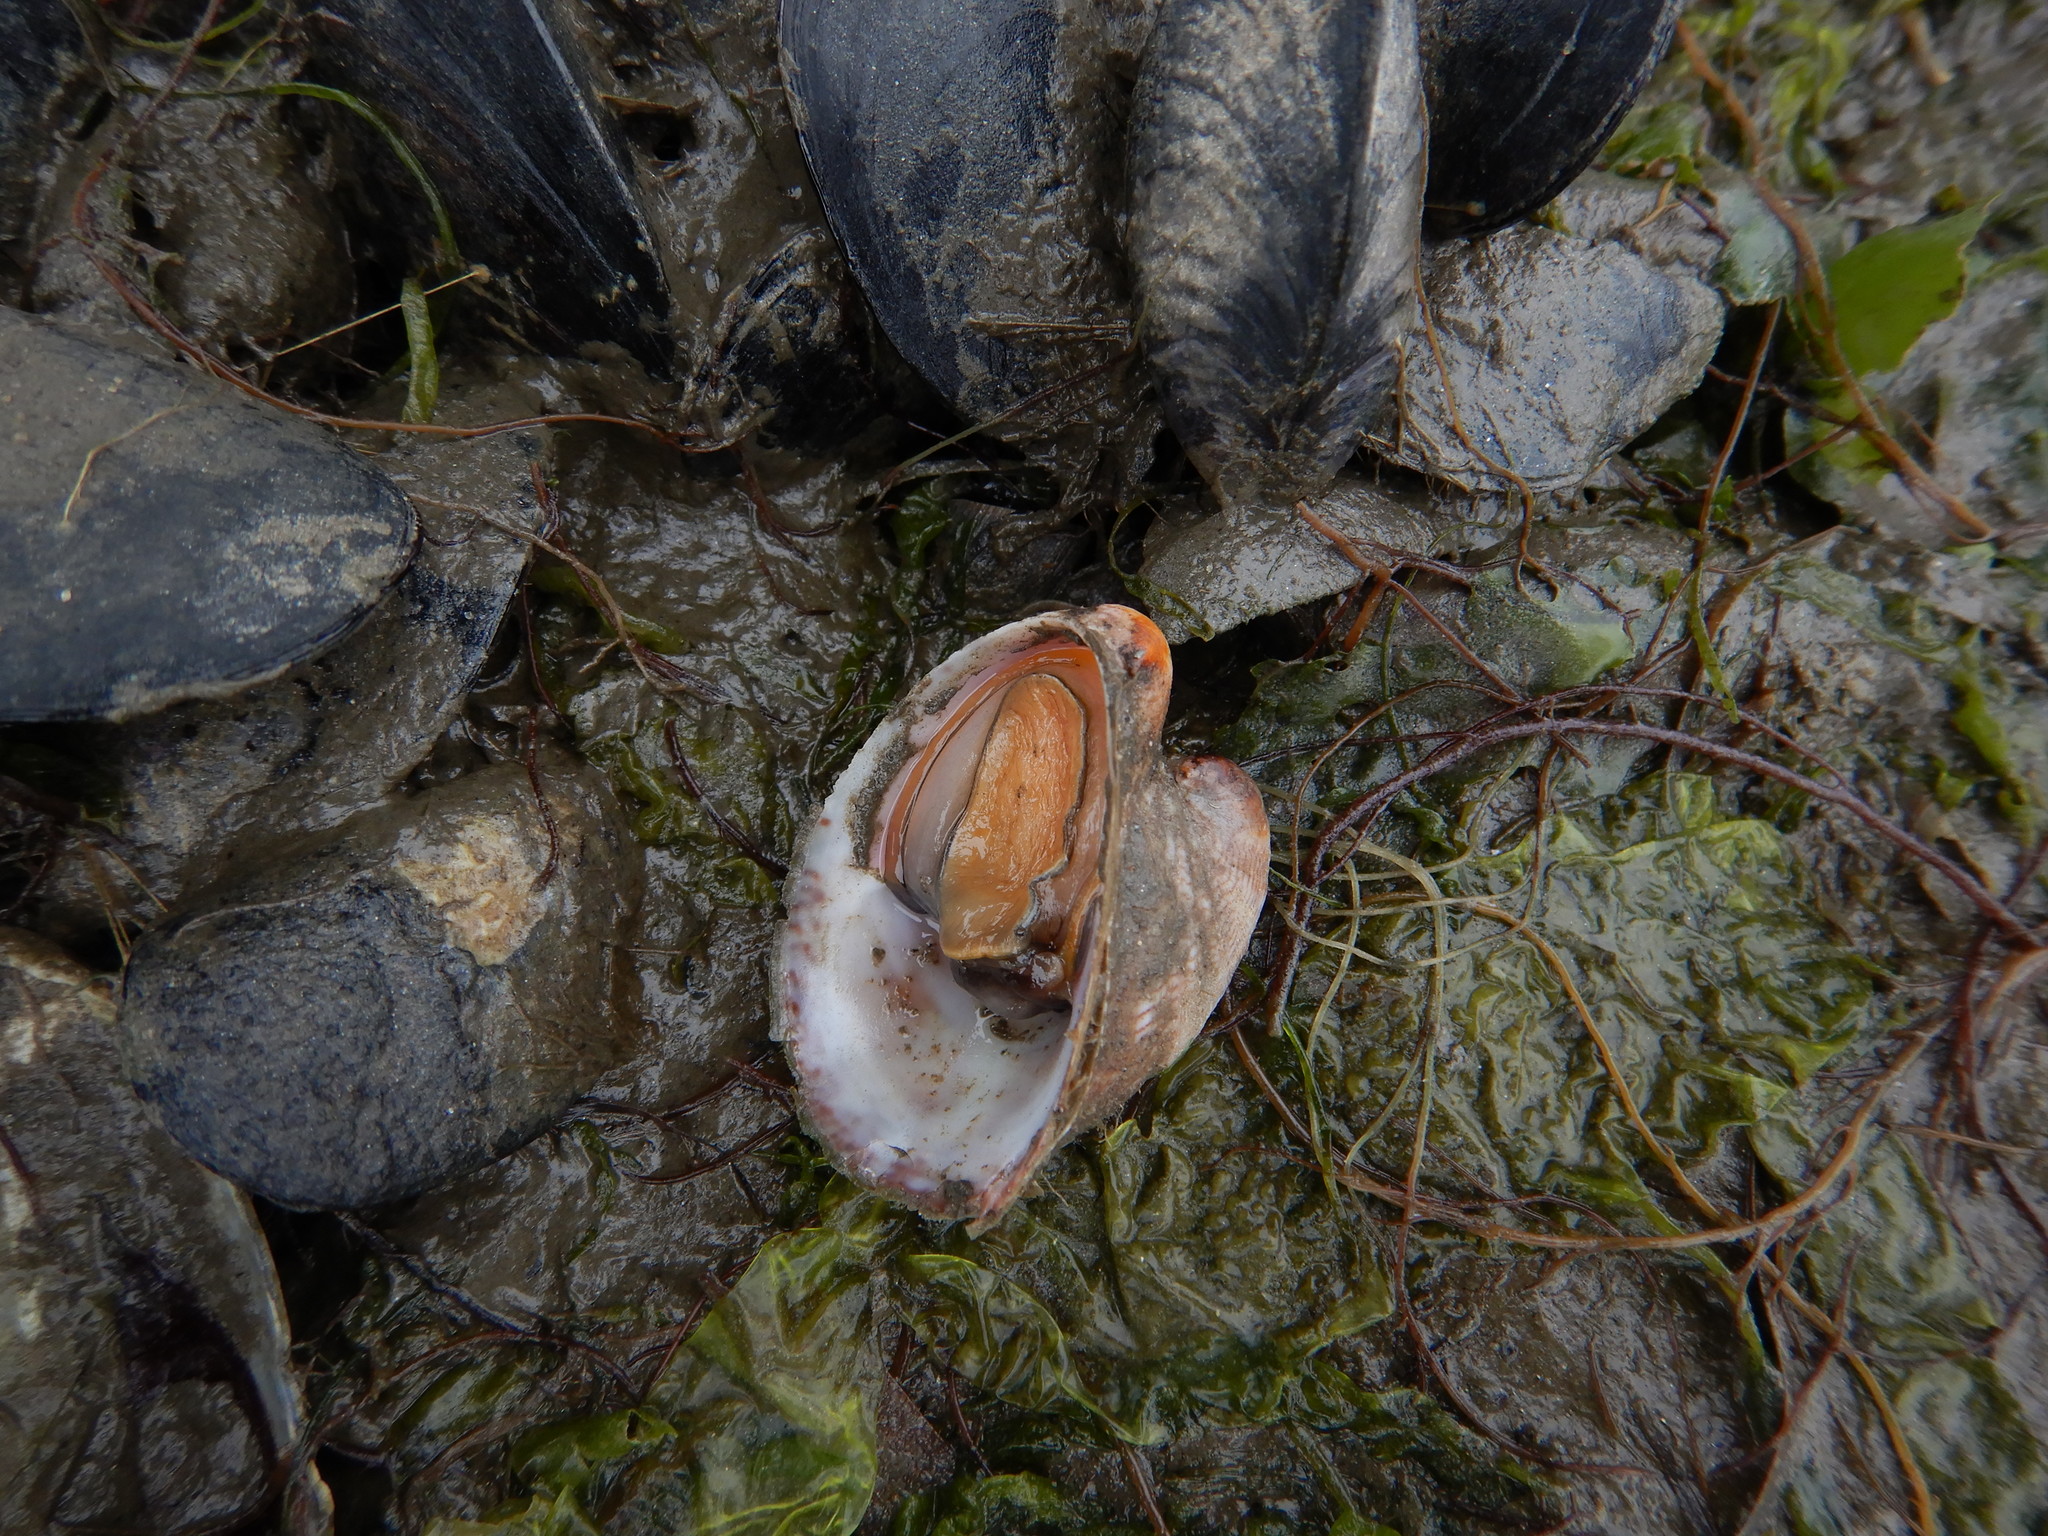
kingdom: Animalia
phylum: Mollusca
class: Gastropoda
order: Littorinimorpha
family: Calyptraeidae
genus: Crepidula
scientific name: Crepidula fornicata
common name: Slipper limpet
